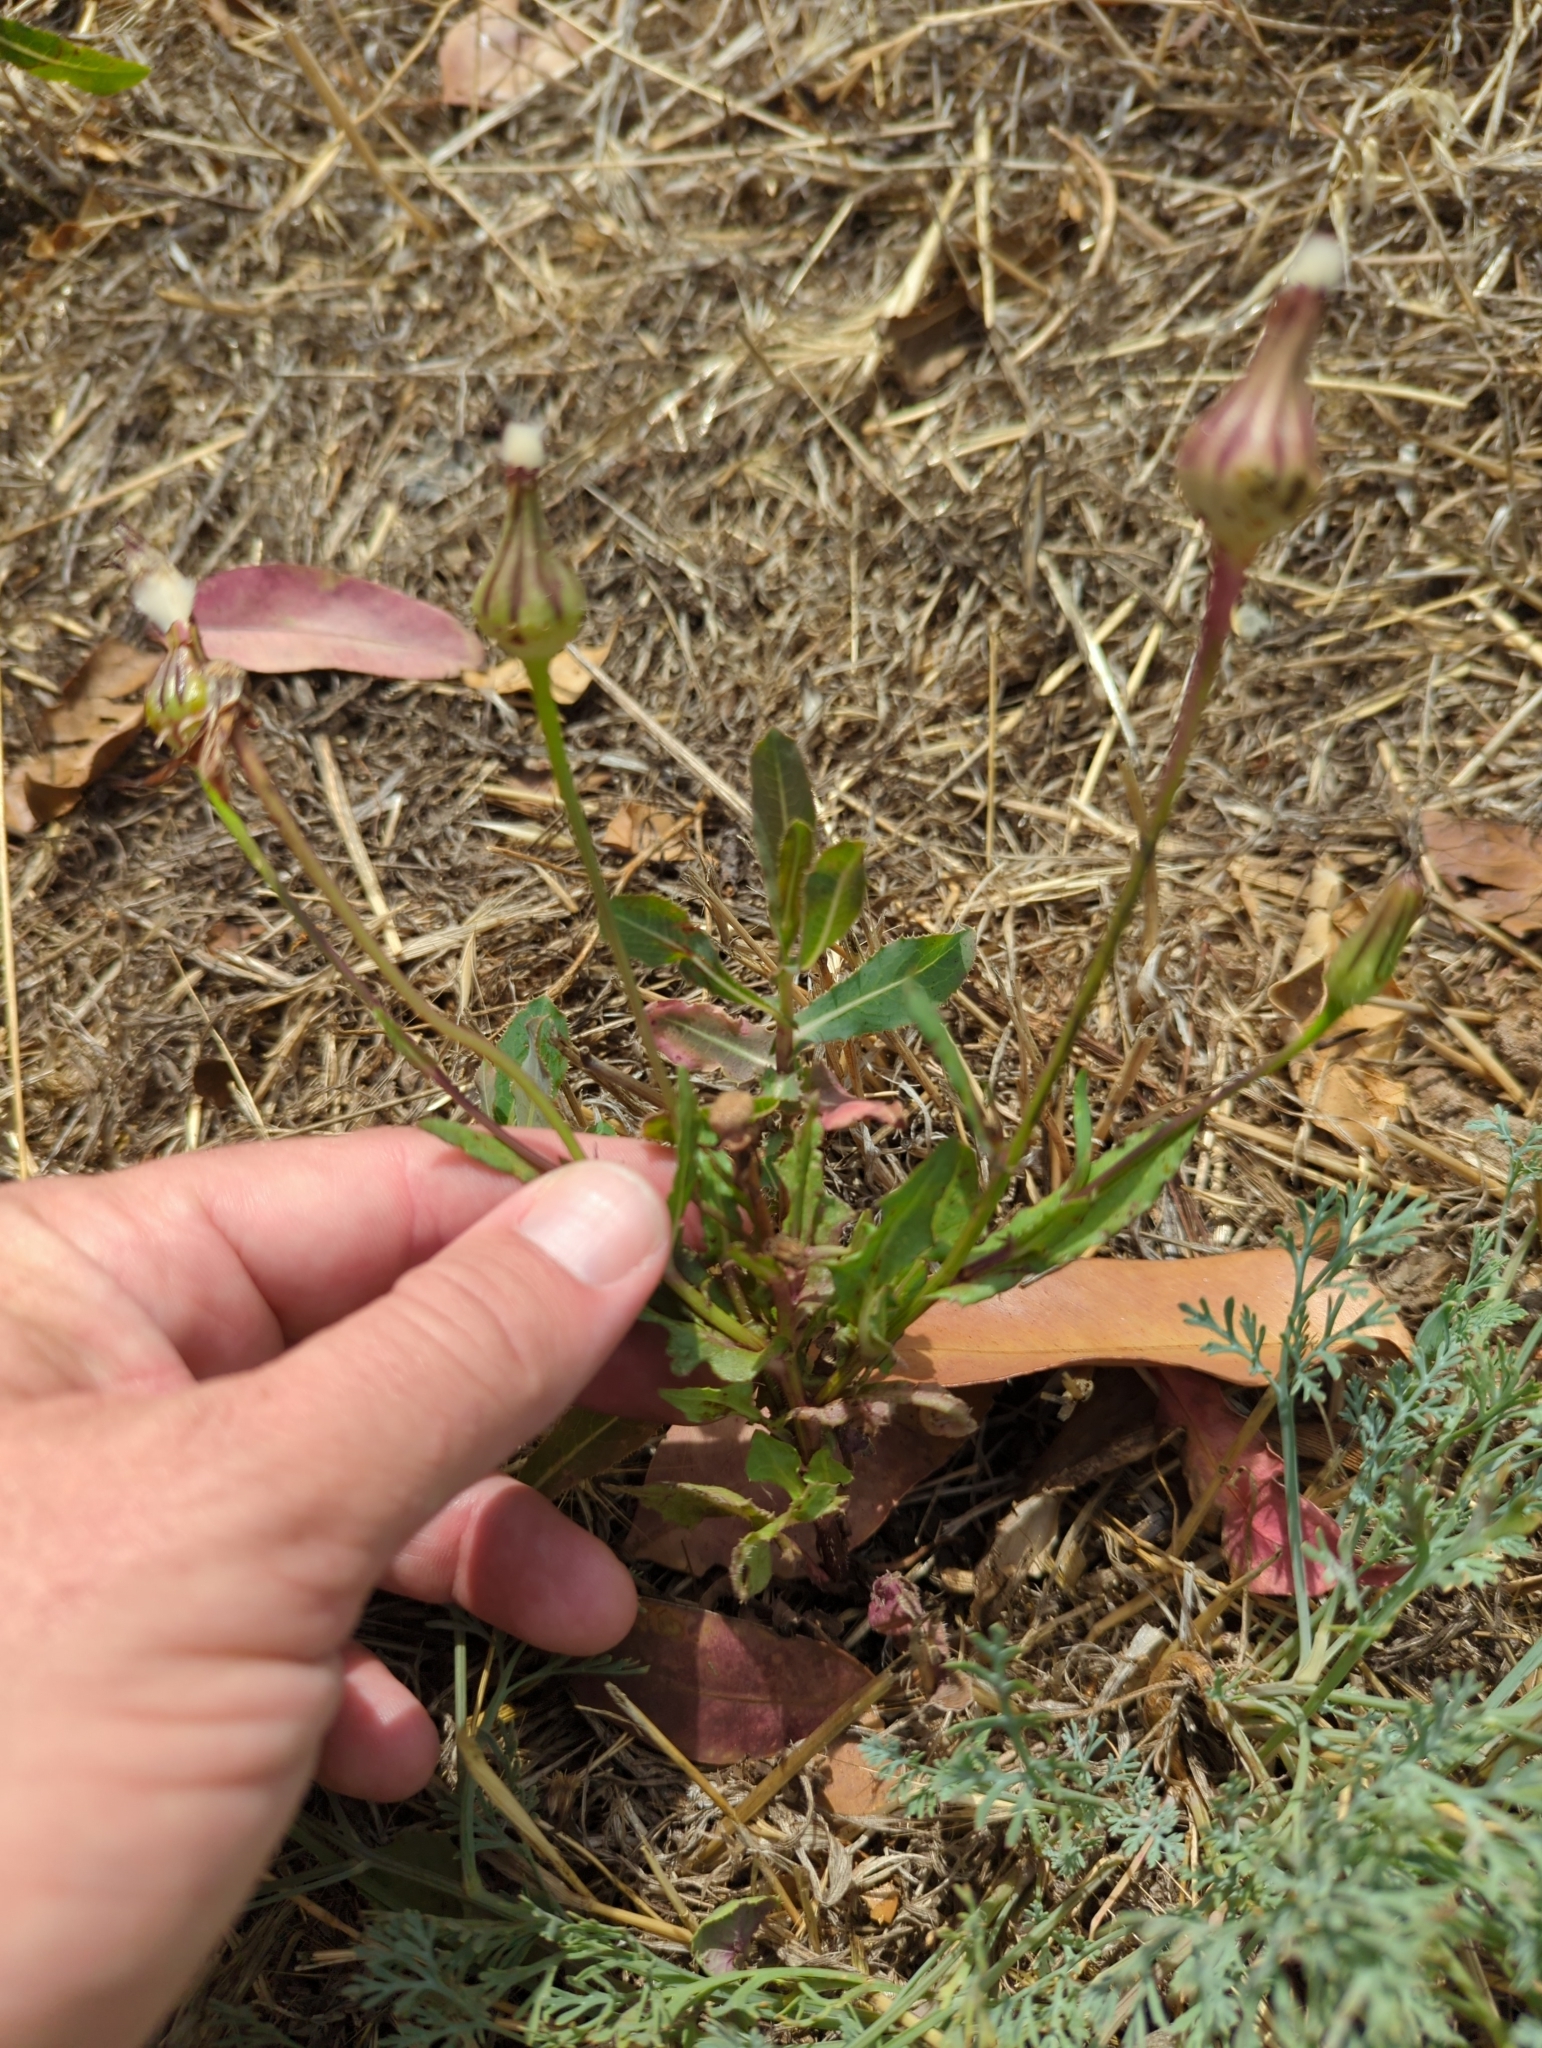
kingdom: Plantae
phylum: Tracheophyta
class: Magnoliopsida
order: Asterales
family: Asteraceae
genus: Urospermum
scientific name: Urospermum picroides
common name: False hawkbit
